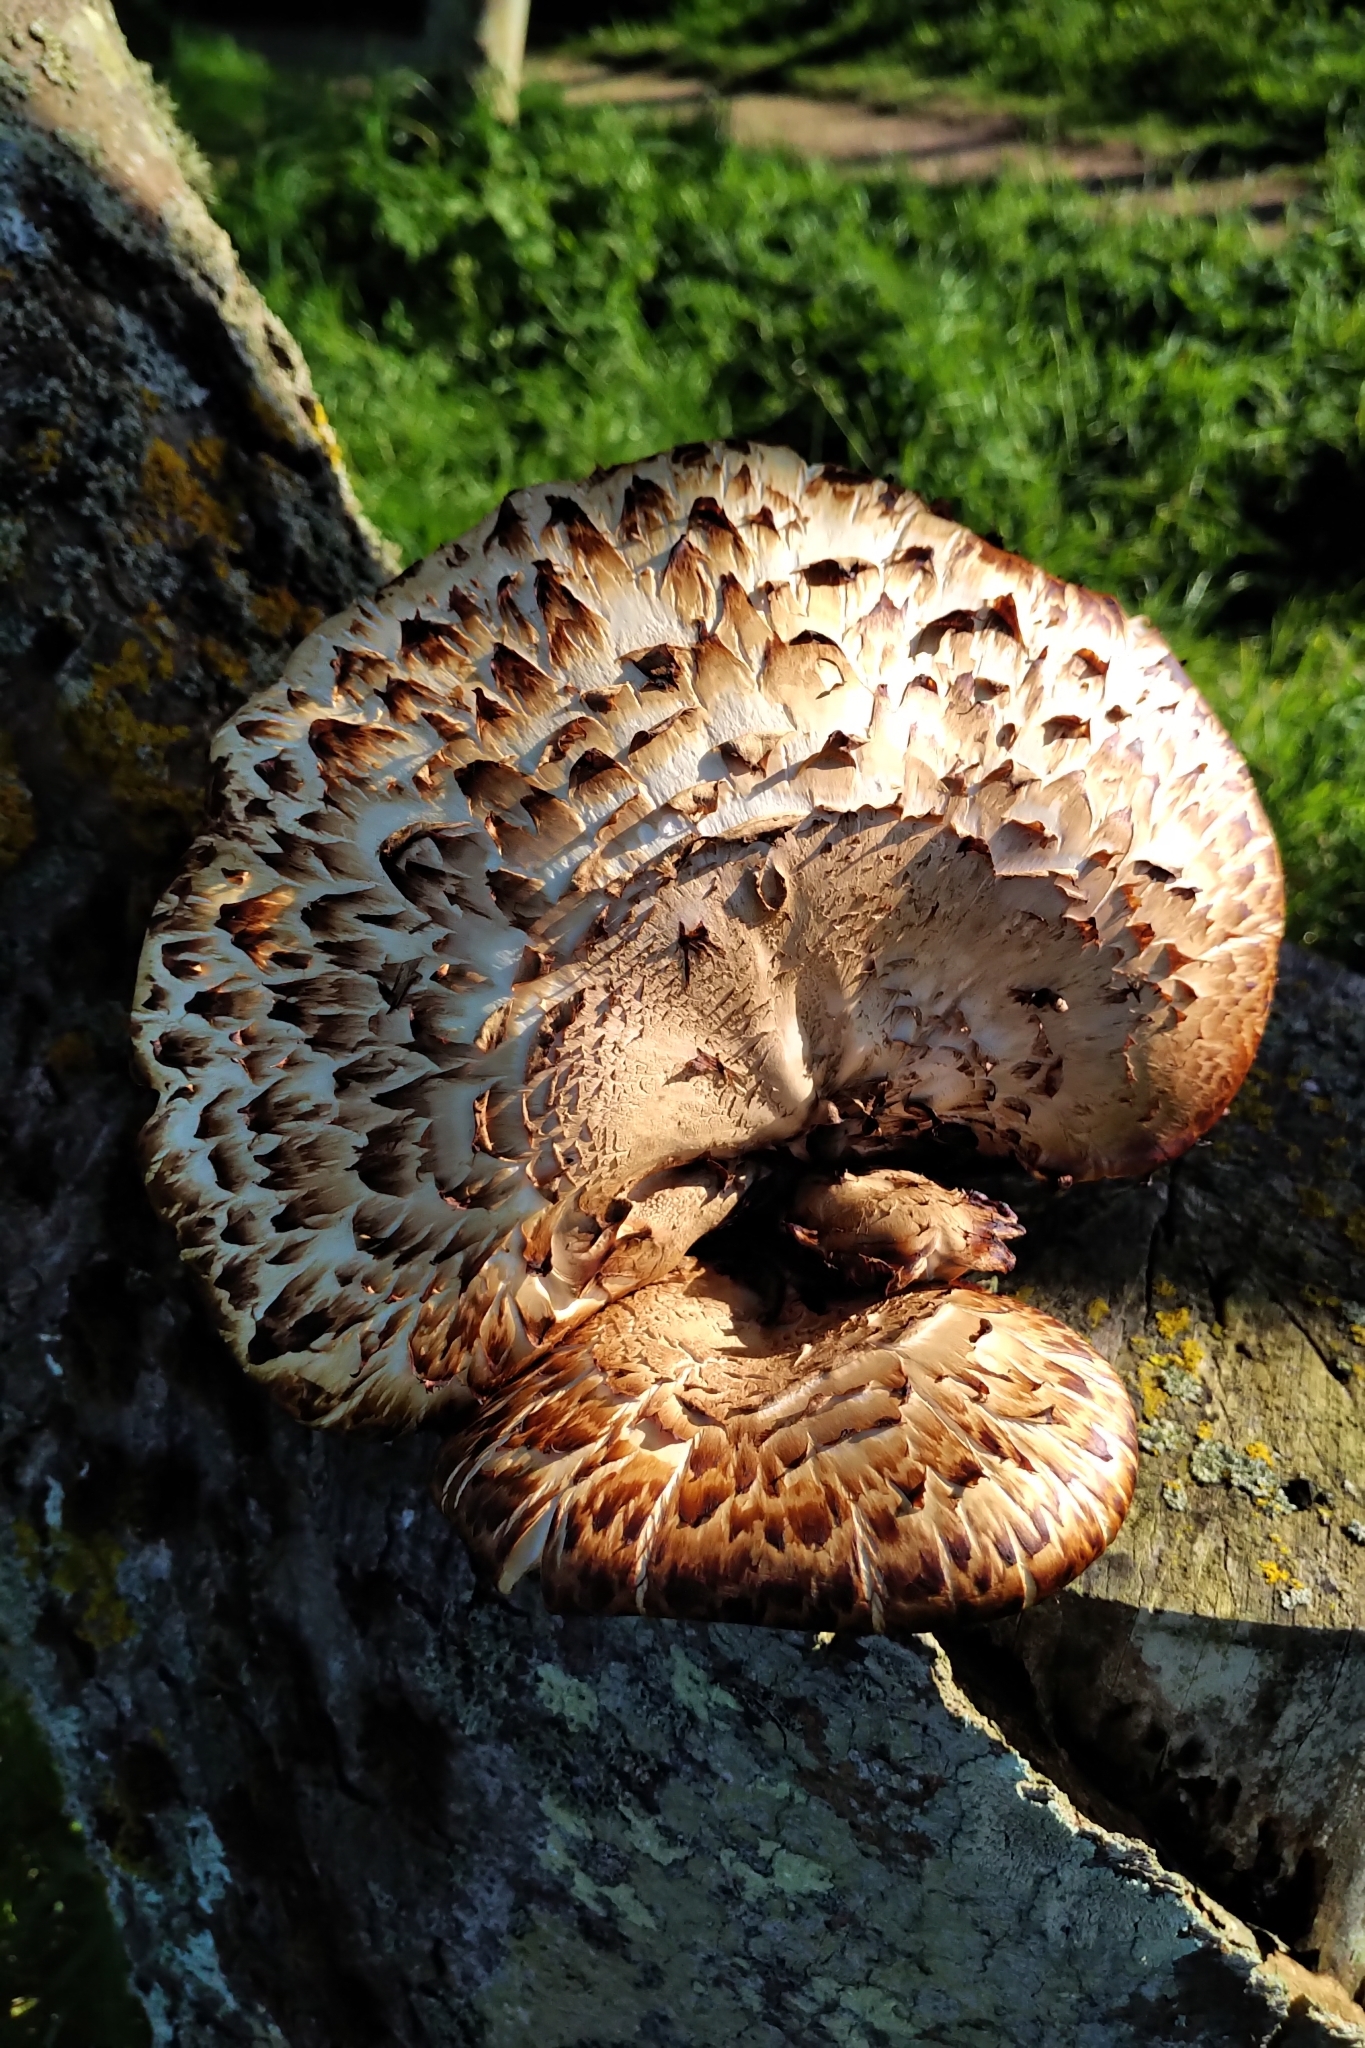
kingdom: Fungi
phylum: Basidiomycota
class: Agaricomycetes
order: Polyporales
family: Polyporaceae
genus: Cerioporus
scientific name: Cerioporus squamosus
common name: Dryad's saddle
